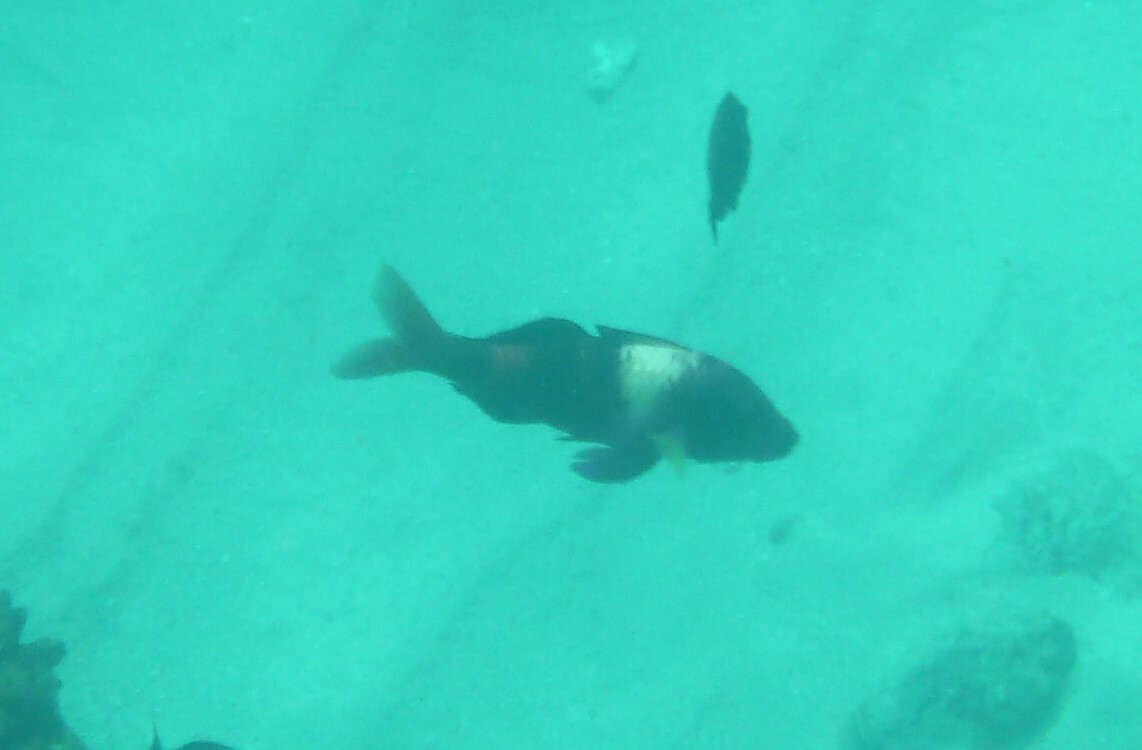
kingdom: Animalia
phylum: Chordata
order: Perciformes
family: Mullidae
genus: Parupeneus
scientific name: Parupeneus multifasciatus
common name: Manybar goatfish
